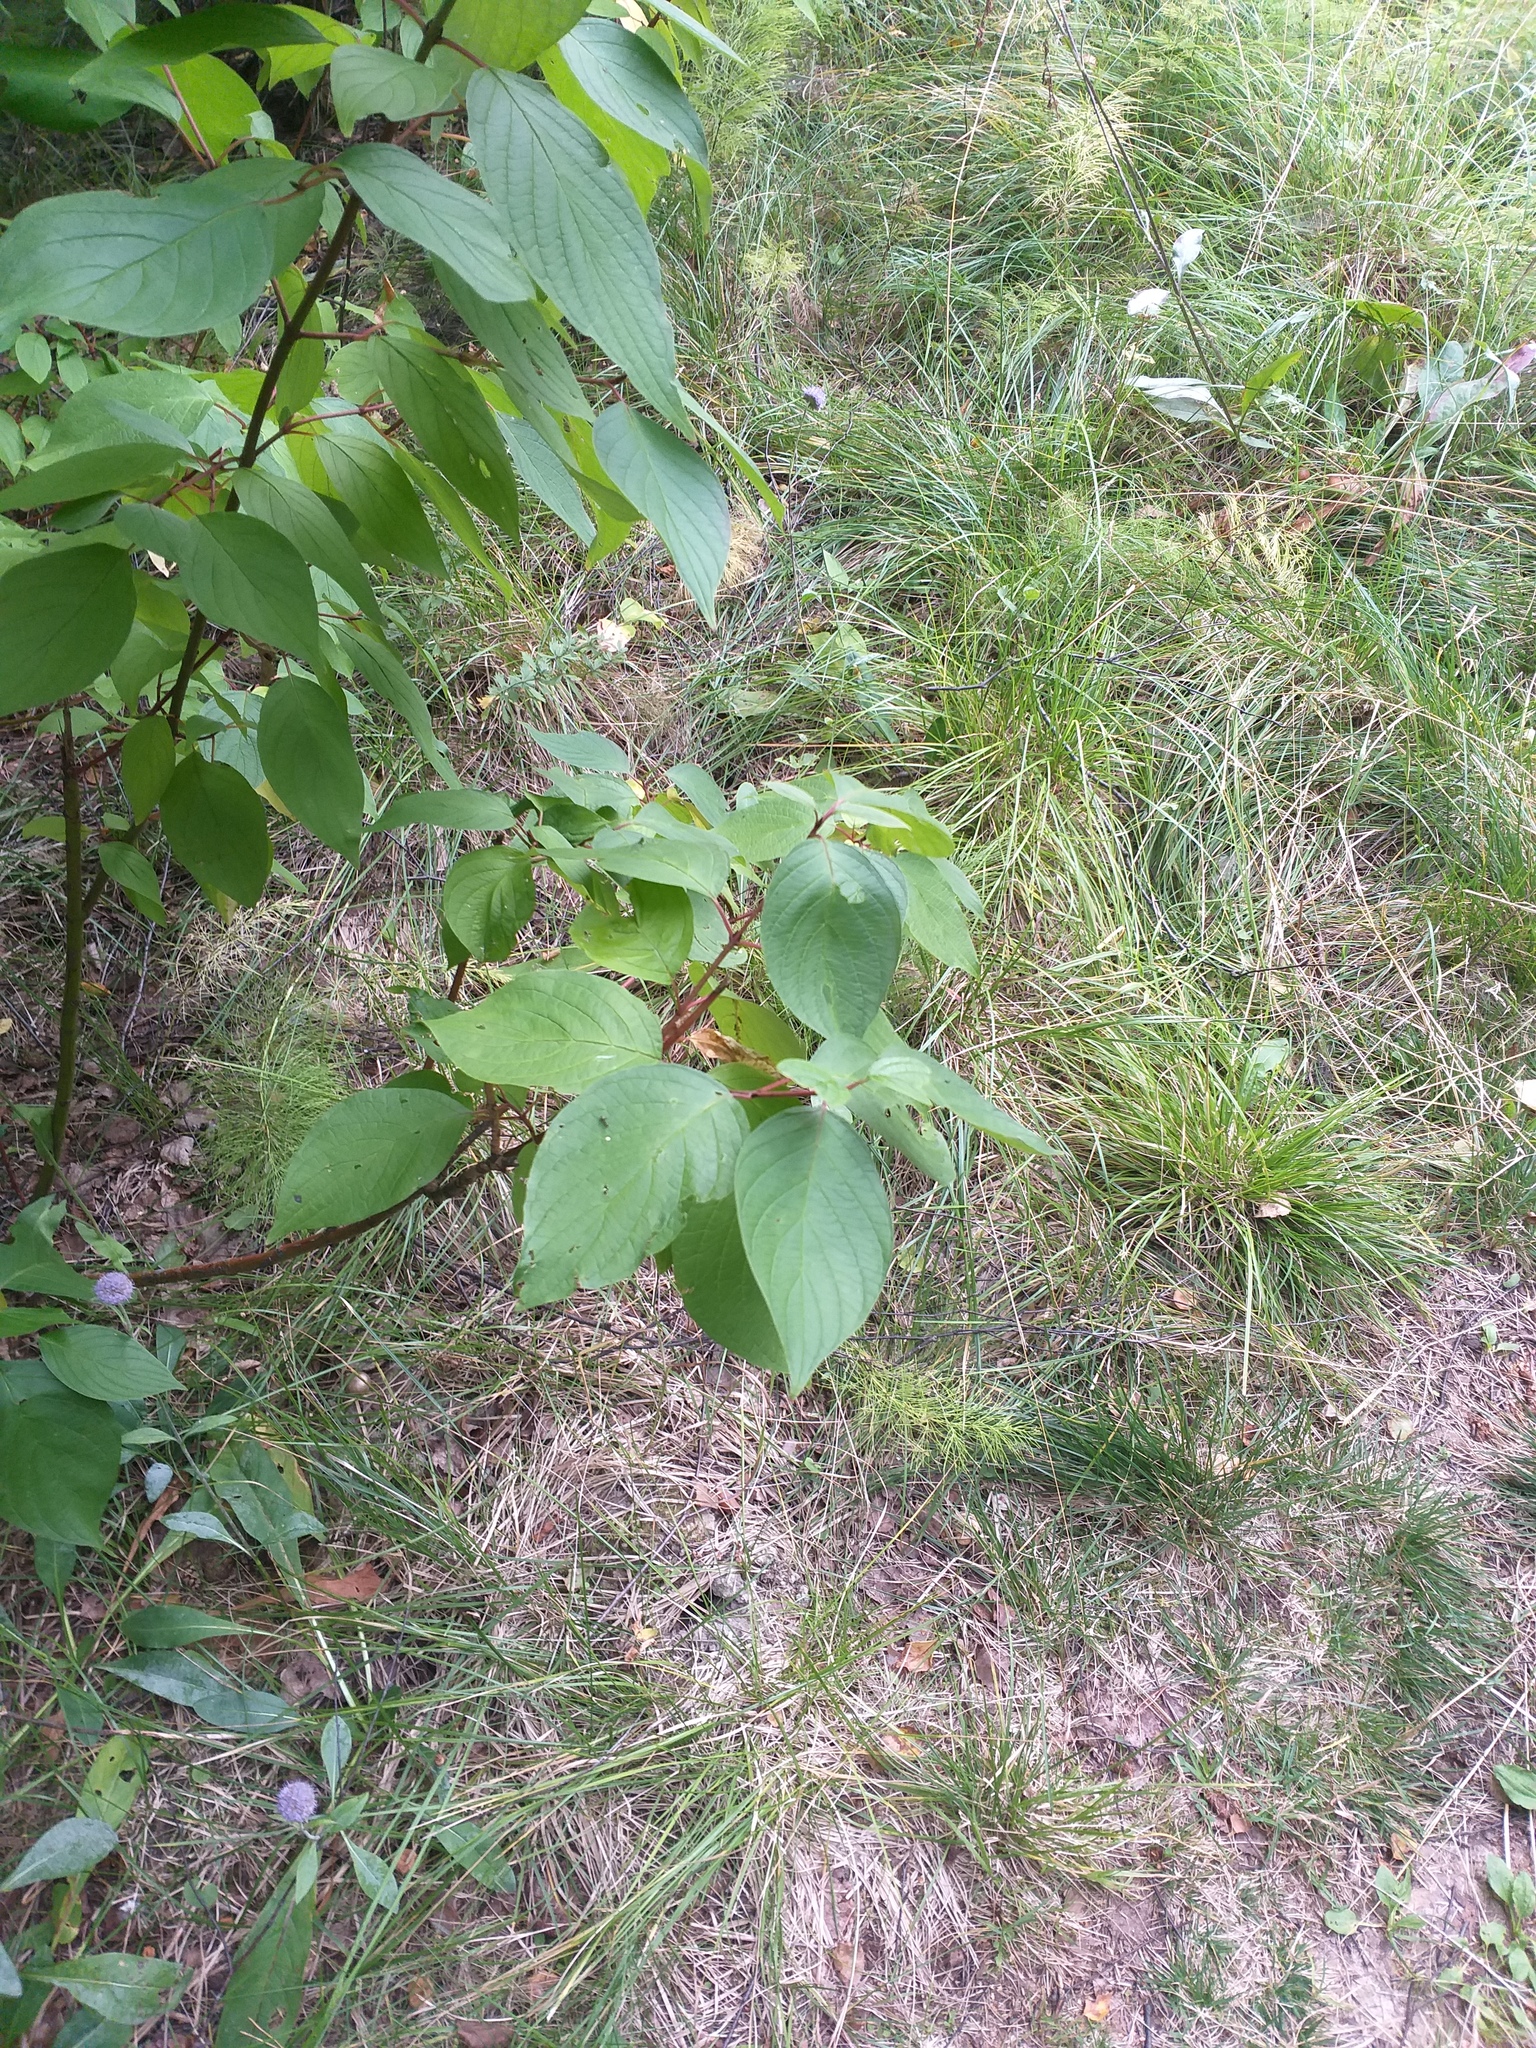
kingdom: Plantae
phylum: Tracheophyta
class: Magnoliopsida
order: Cornales
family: Cornaceae
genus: Cornus
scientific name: Cornus alba
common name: White dogwood
